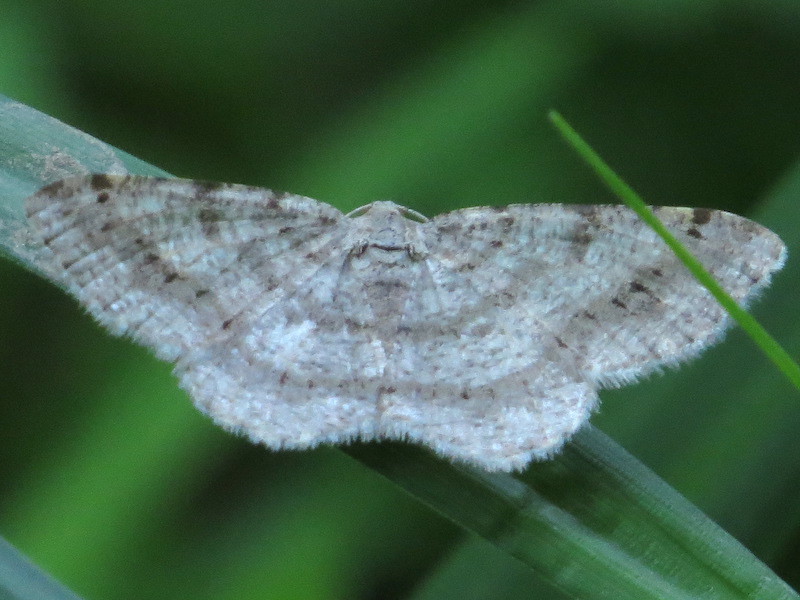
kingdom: Animalia
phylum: Arthropoda
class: Insecta
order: Lepidoptera
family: Geometridae
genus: Digrammia
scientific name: Digrammia ocellinata
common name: Faint-spotted angle
